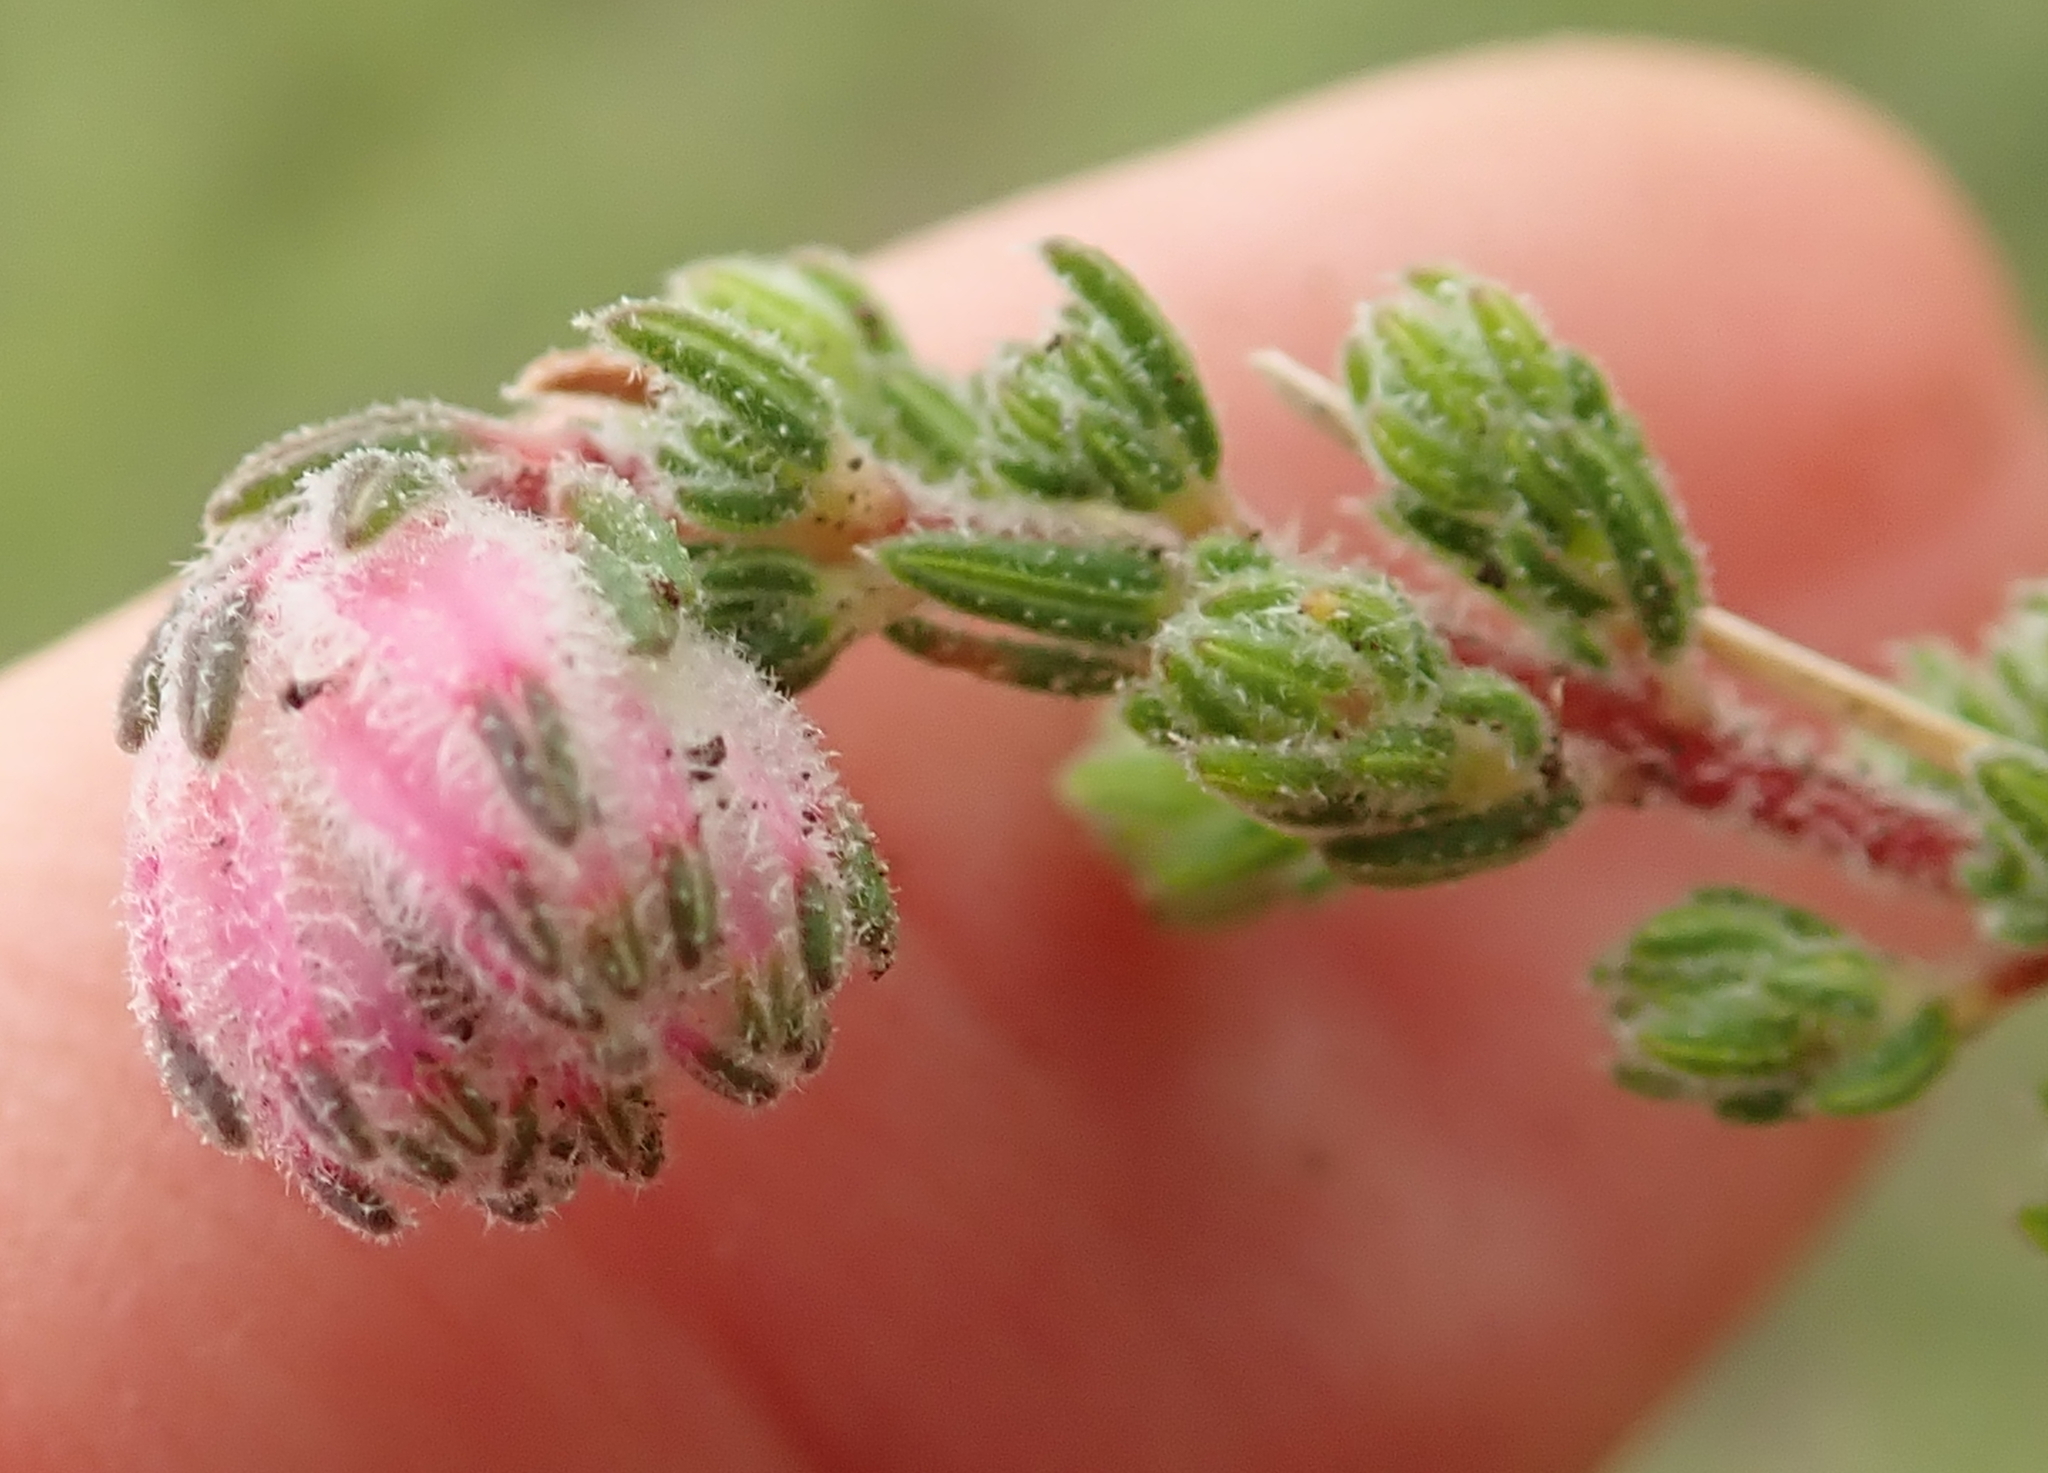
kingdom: Plantae
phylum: Tracheophyta
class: Magnoliopsida
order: Ericales
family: Ericaceae
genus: Erica
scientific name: Erica cooperi
